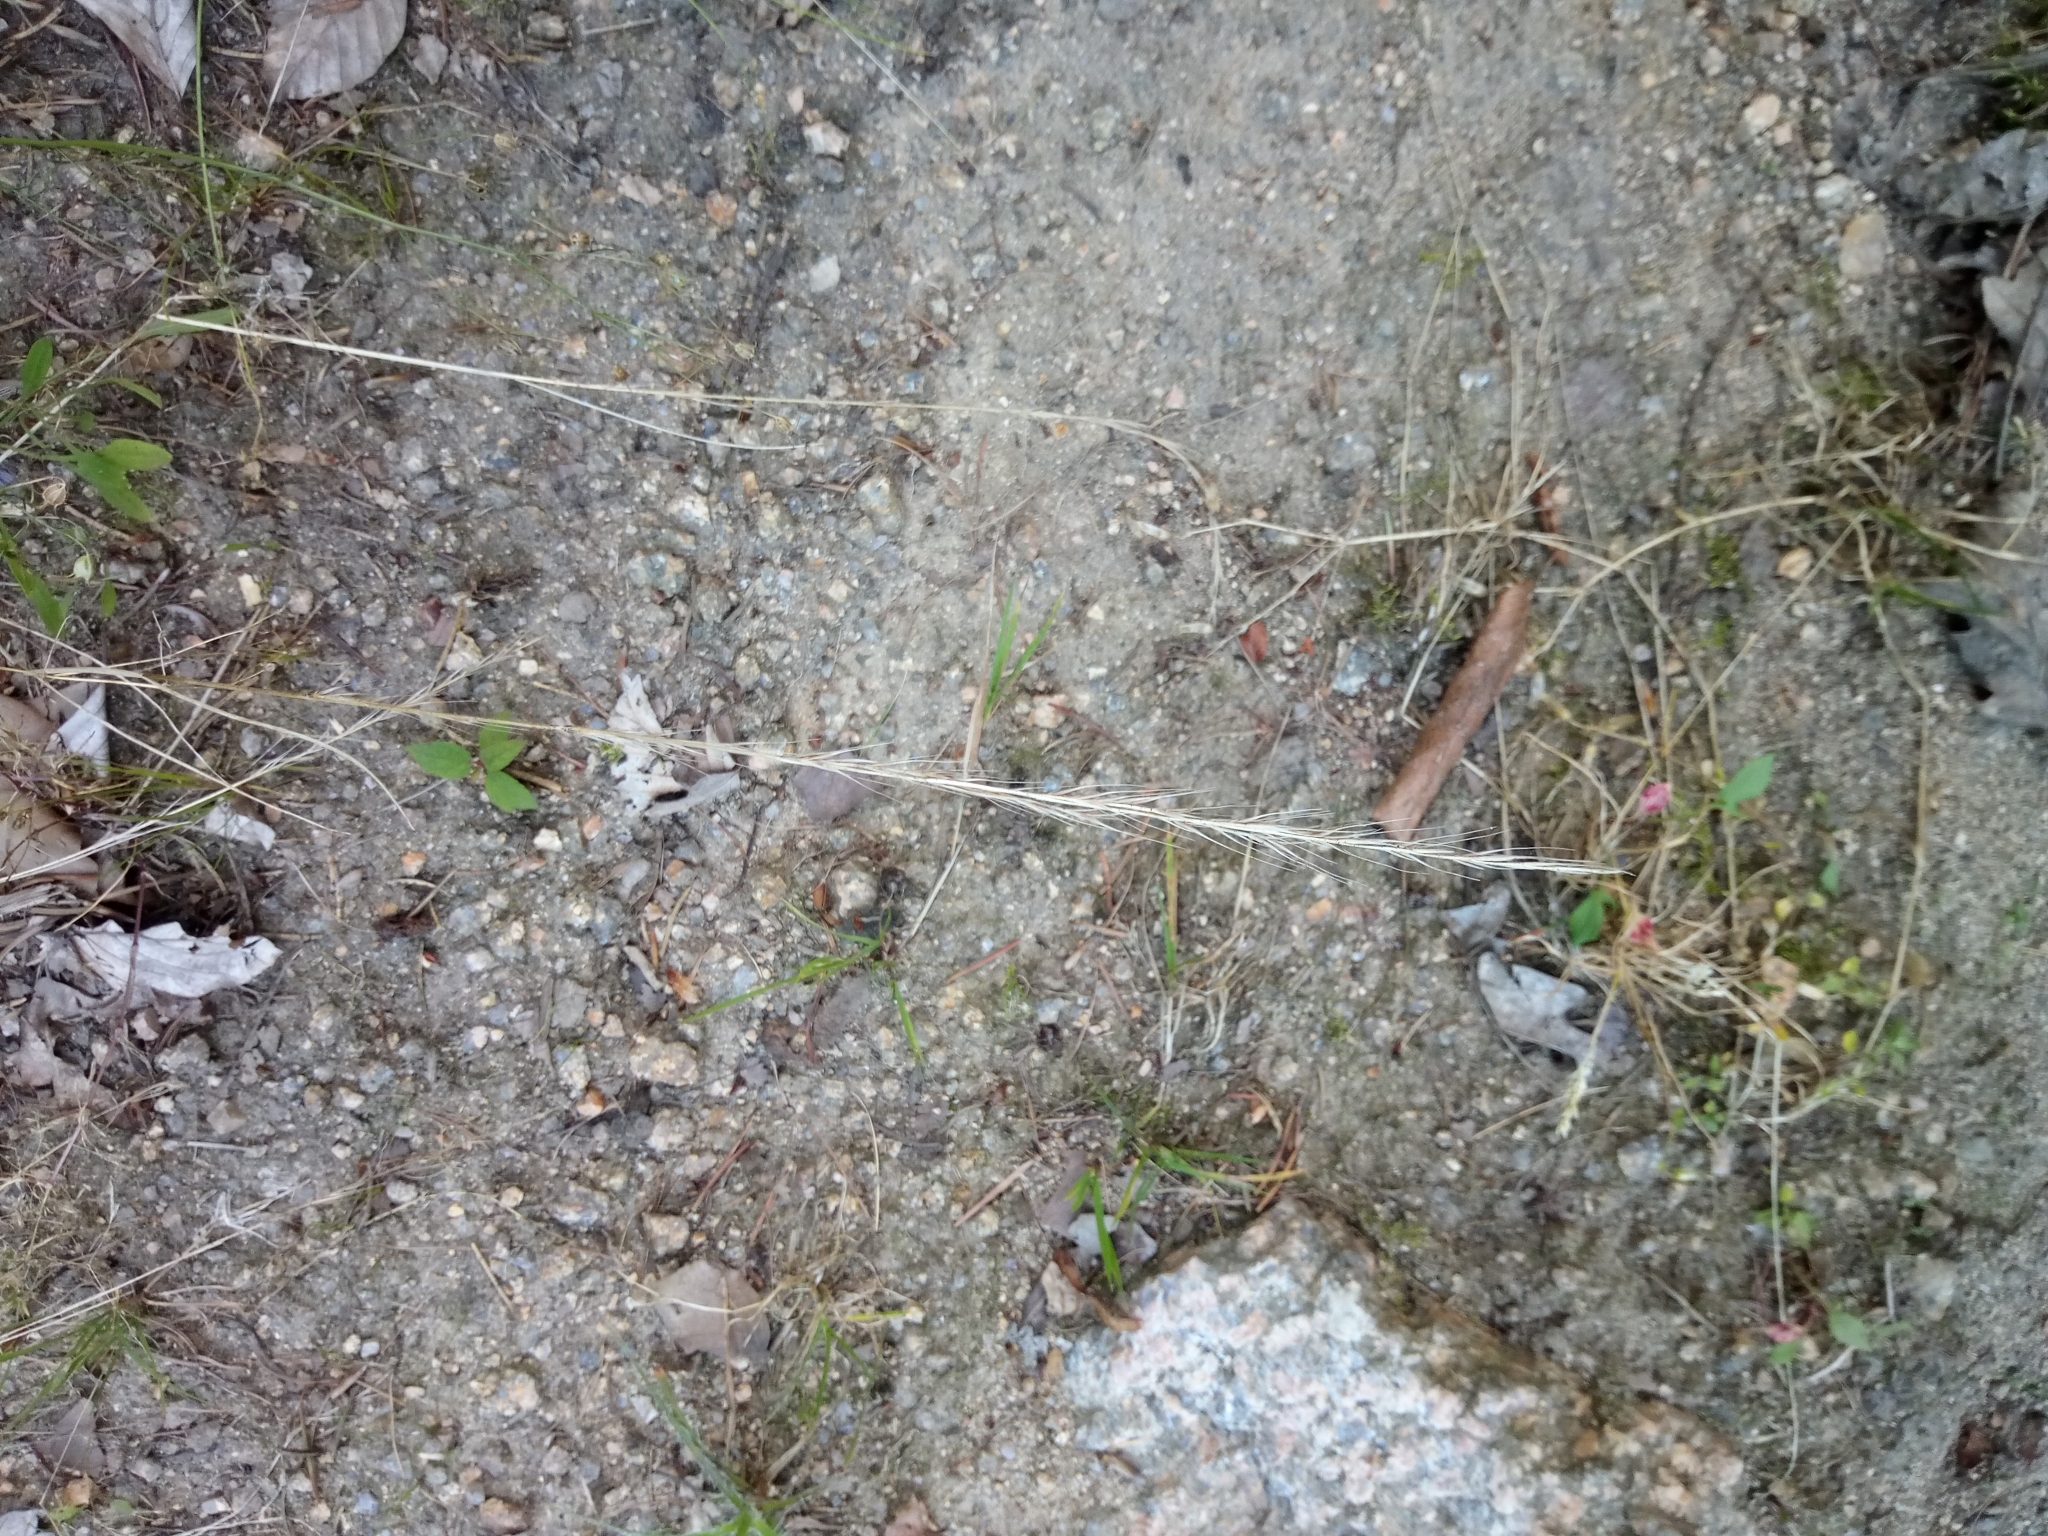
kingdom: Plantae
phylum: Tracheophyta
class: Liliopsida
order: Poales
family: Poaceae
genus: Festuca
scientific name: Festuca myuros
